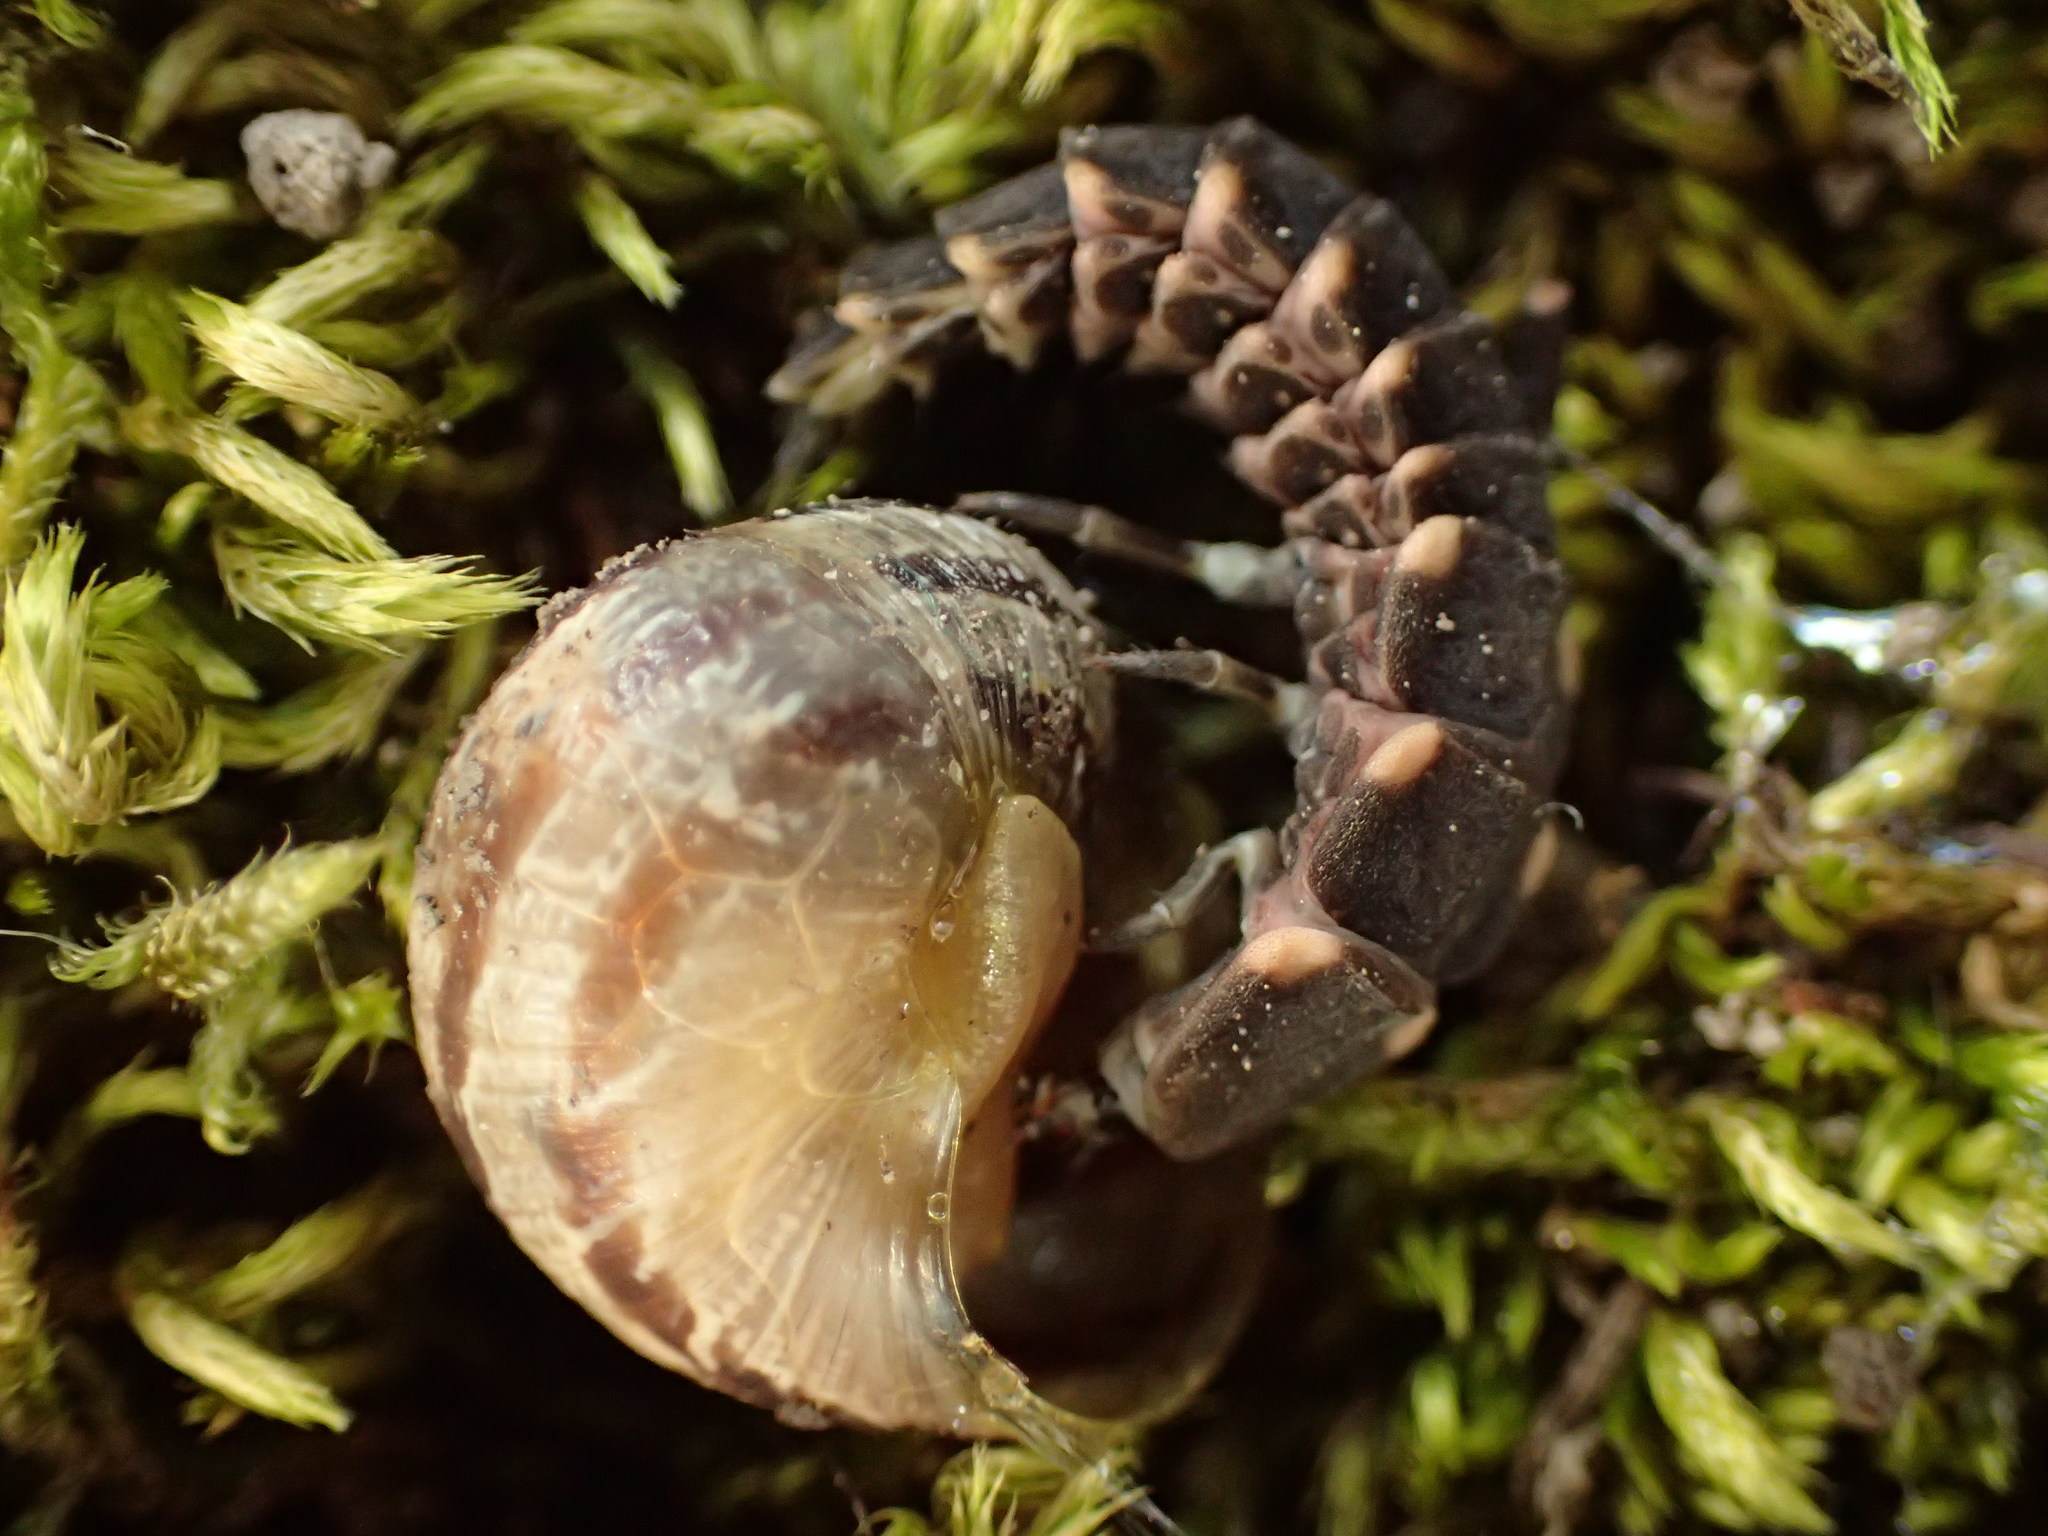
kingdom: Animalia
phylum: Arthropoda
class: Insecta
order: Coleoptera
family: Lampyridae
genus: Lampyris
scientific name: Lampyris noctiluca
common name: Glow-worm
